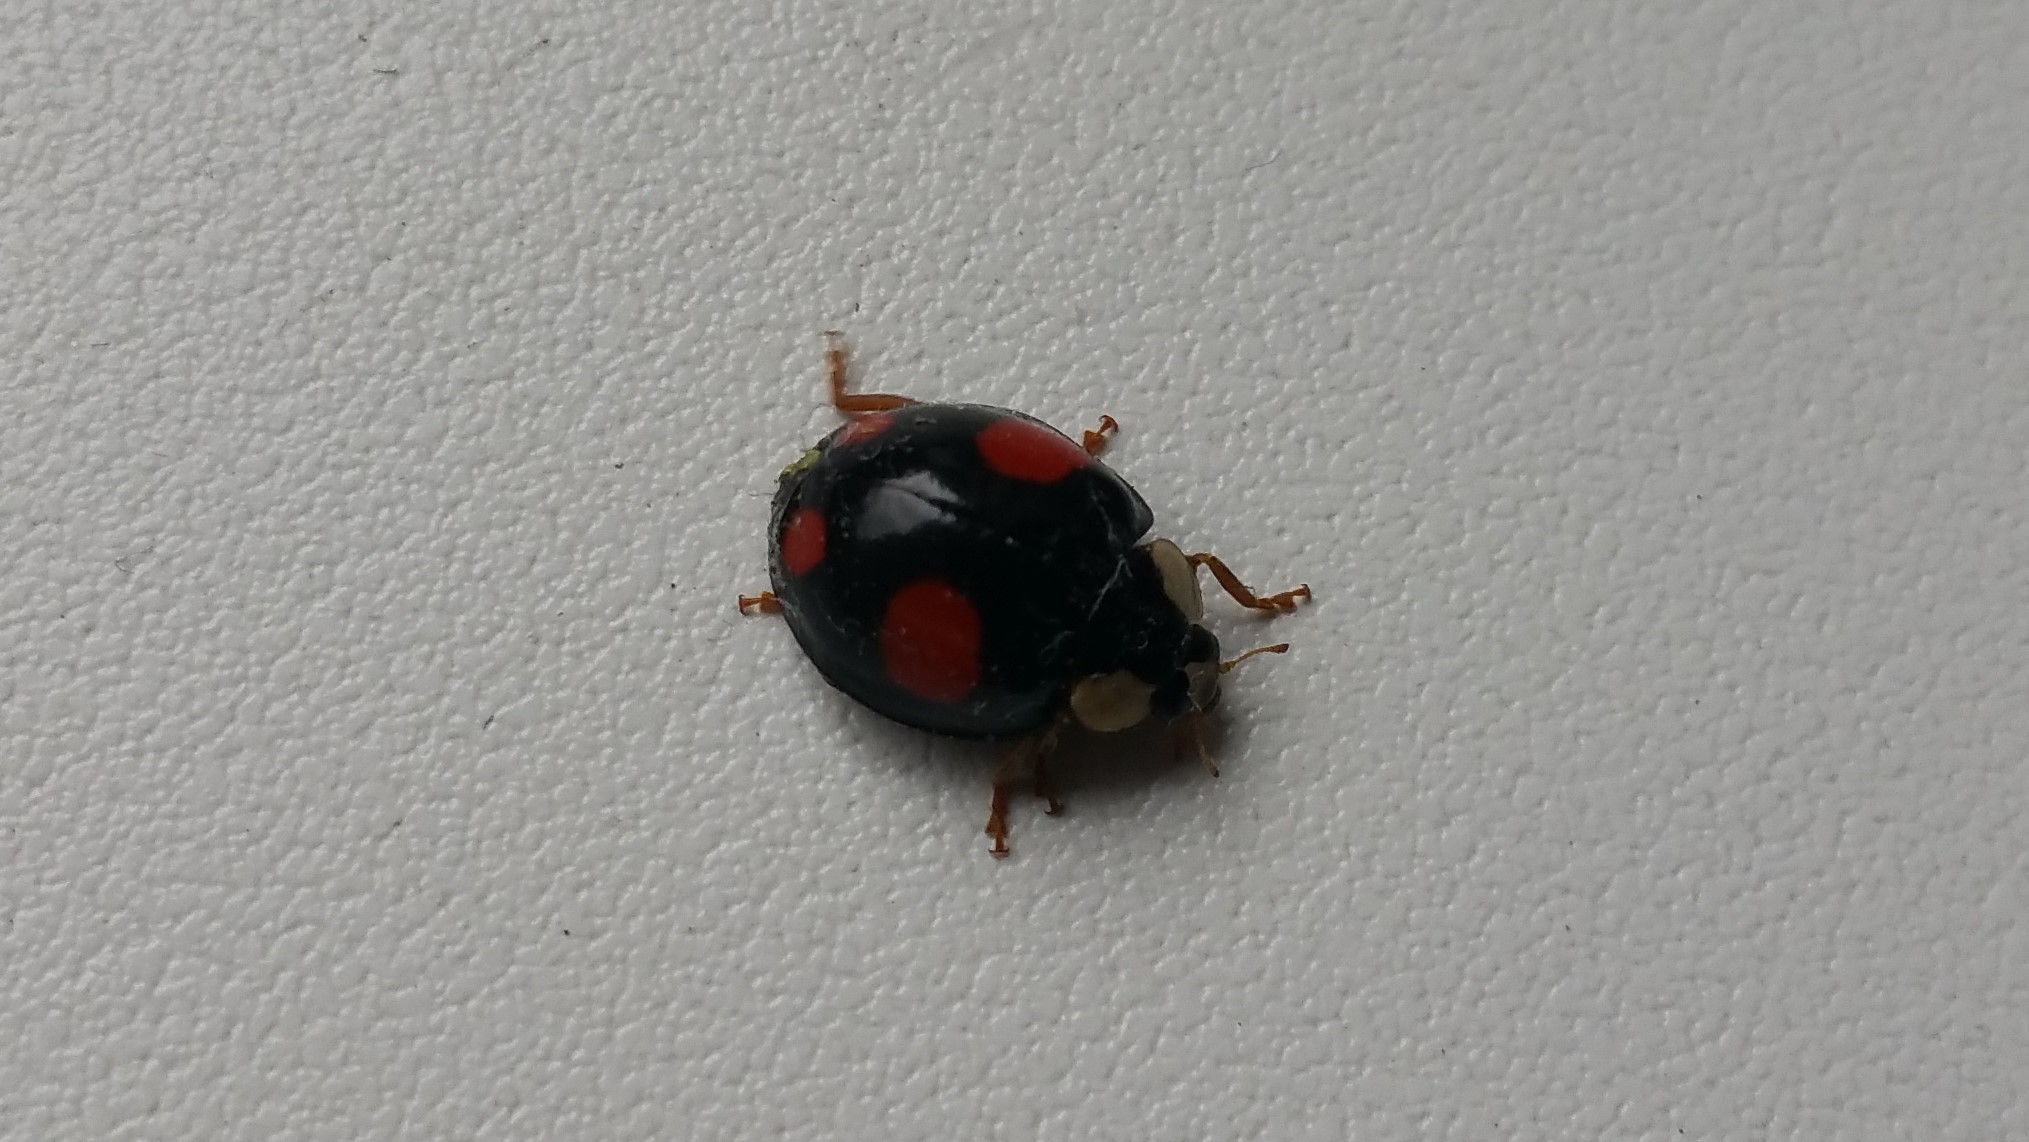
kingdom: Animalia
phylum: Arthropoda
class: Insecta
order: Coleoptera
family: Coccinellidae
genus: Harmonia
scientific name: Harmonia axyridis
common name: Harlequin ladybird
